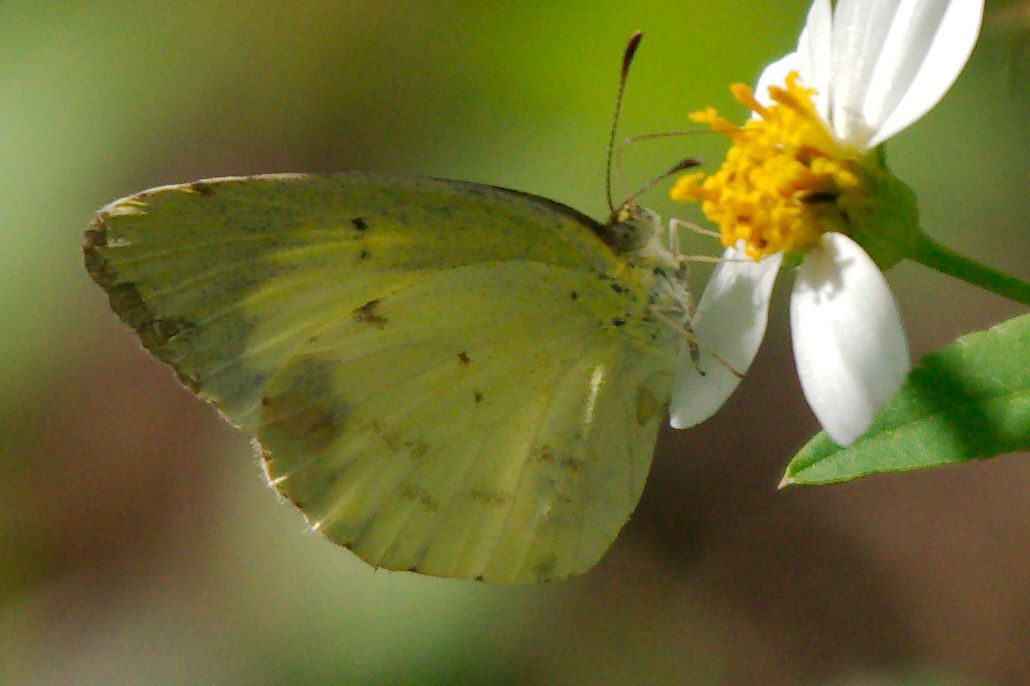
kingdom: Animalia
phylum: Arthropoda
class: Insecta
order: Lepidoptera
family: Pieridae
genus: Nathalis
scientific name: Nathalis iole
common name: Dainty sulphur
